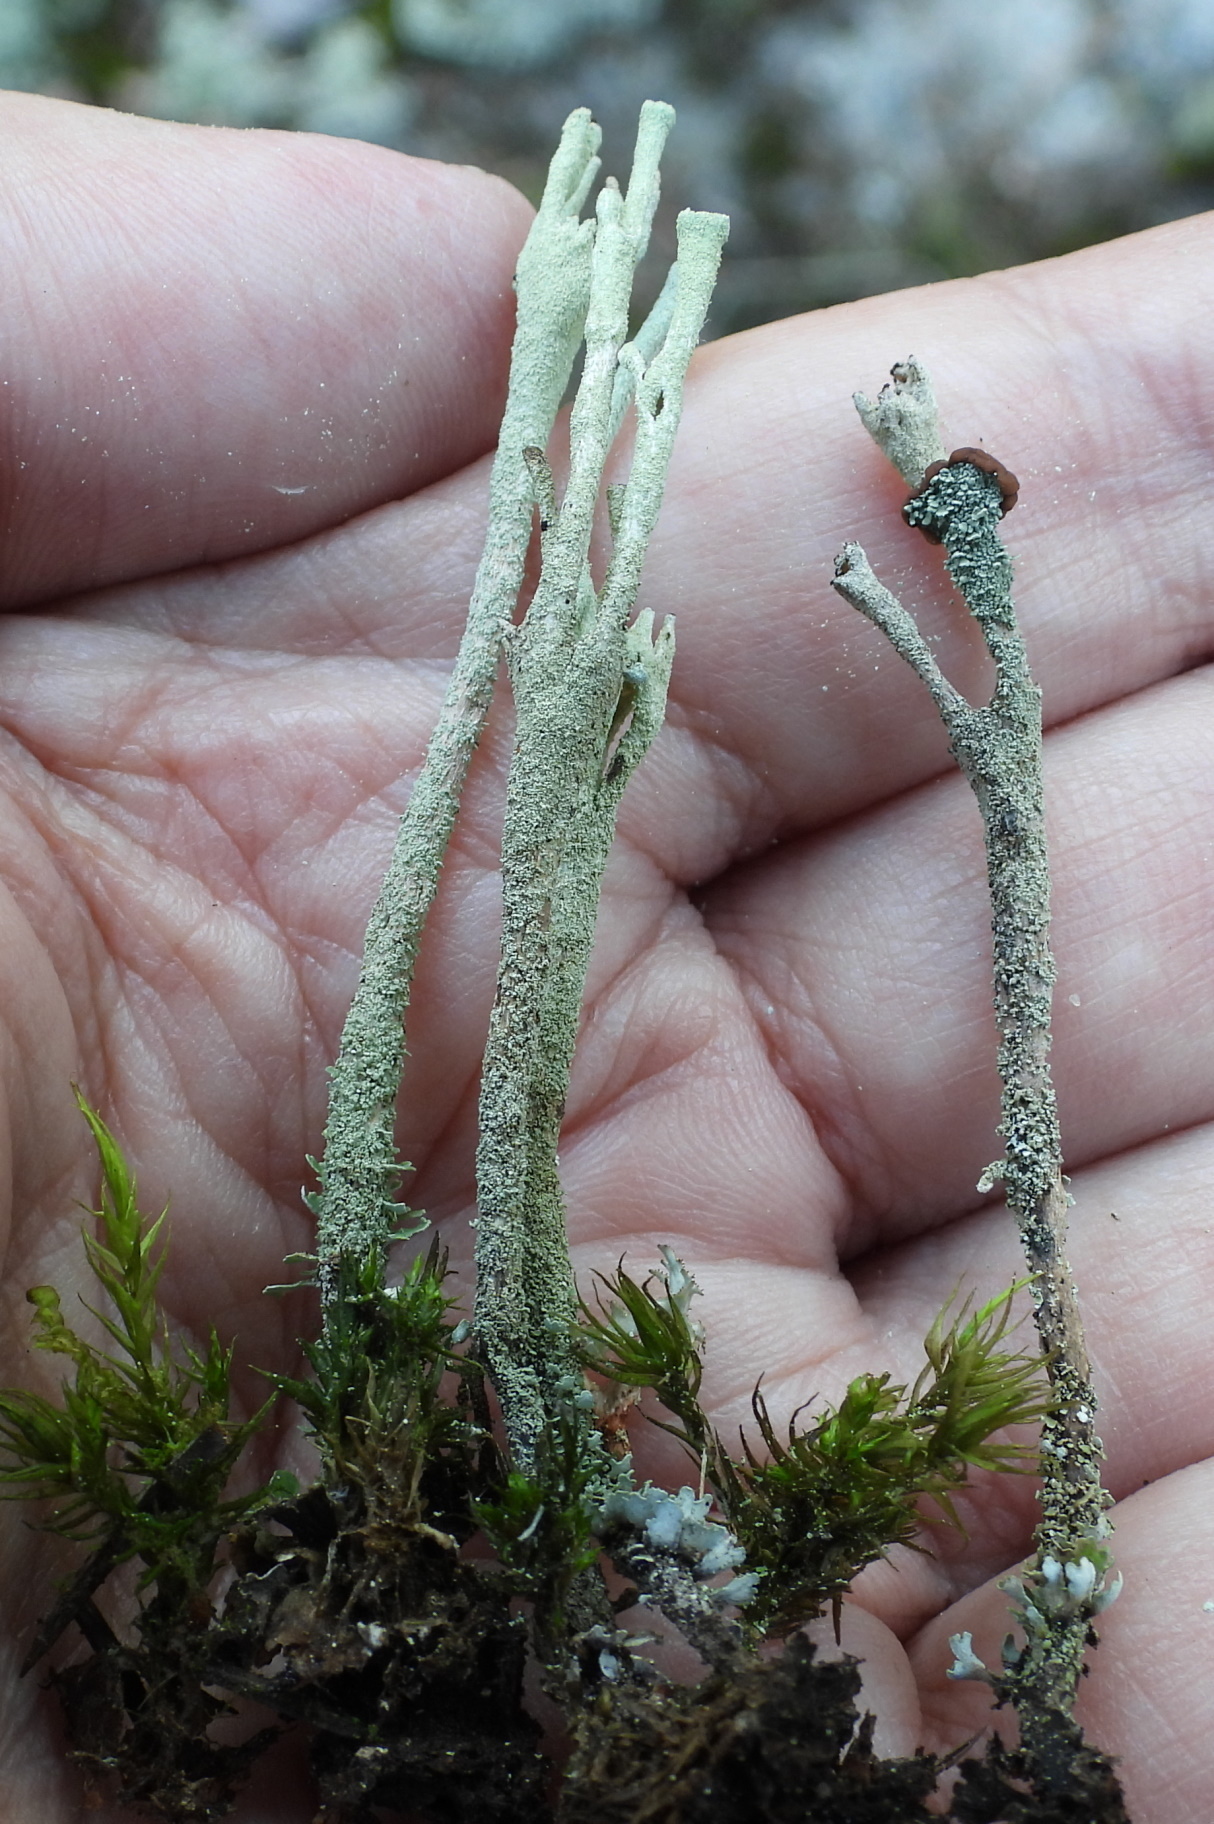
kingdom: Fungi
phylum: Ascomycota
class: Lecanoromycetes
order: Lecanorales
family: Cladoniaceae
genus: Cladonia
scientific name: Cladonia rei
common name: Wand lichen
